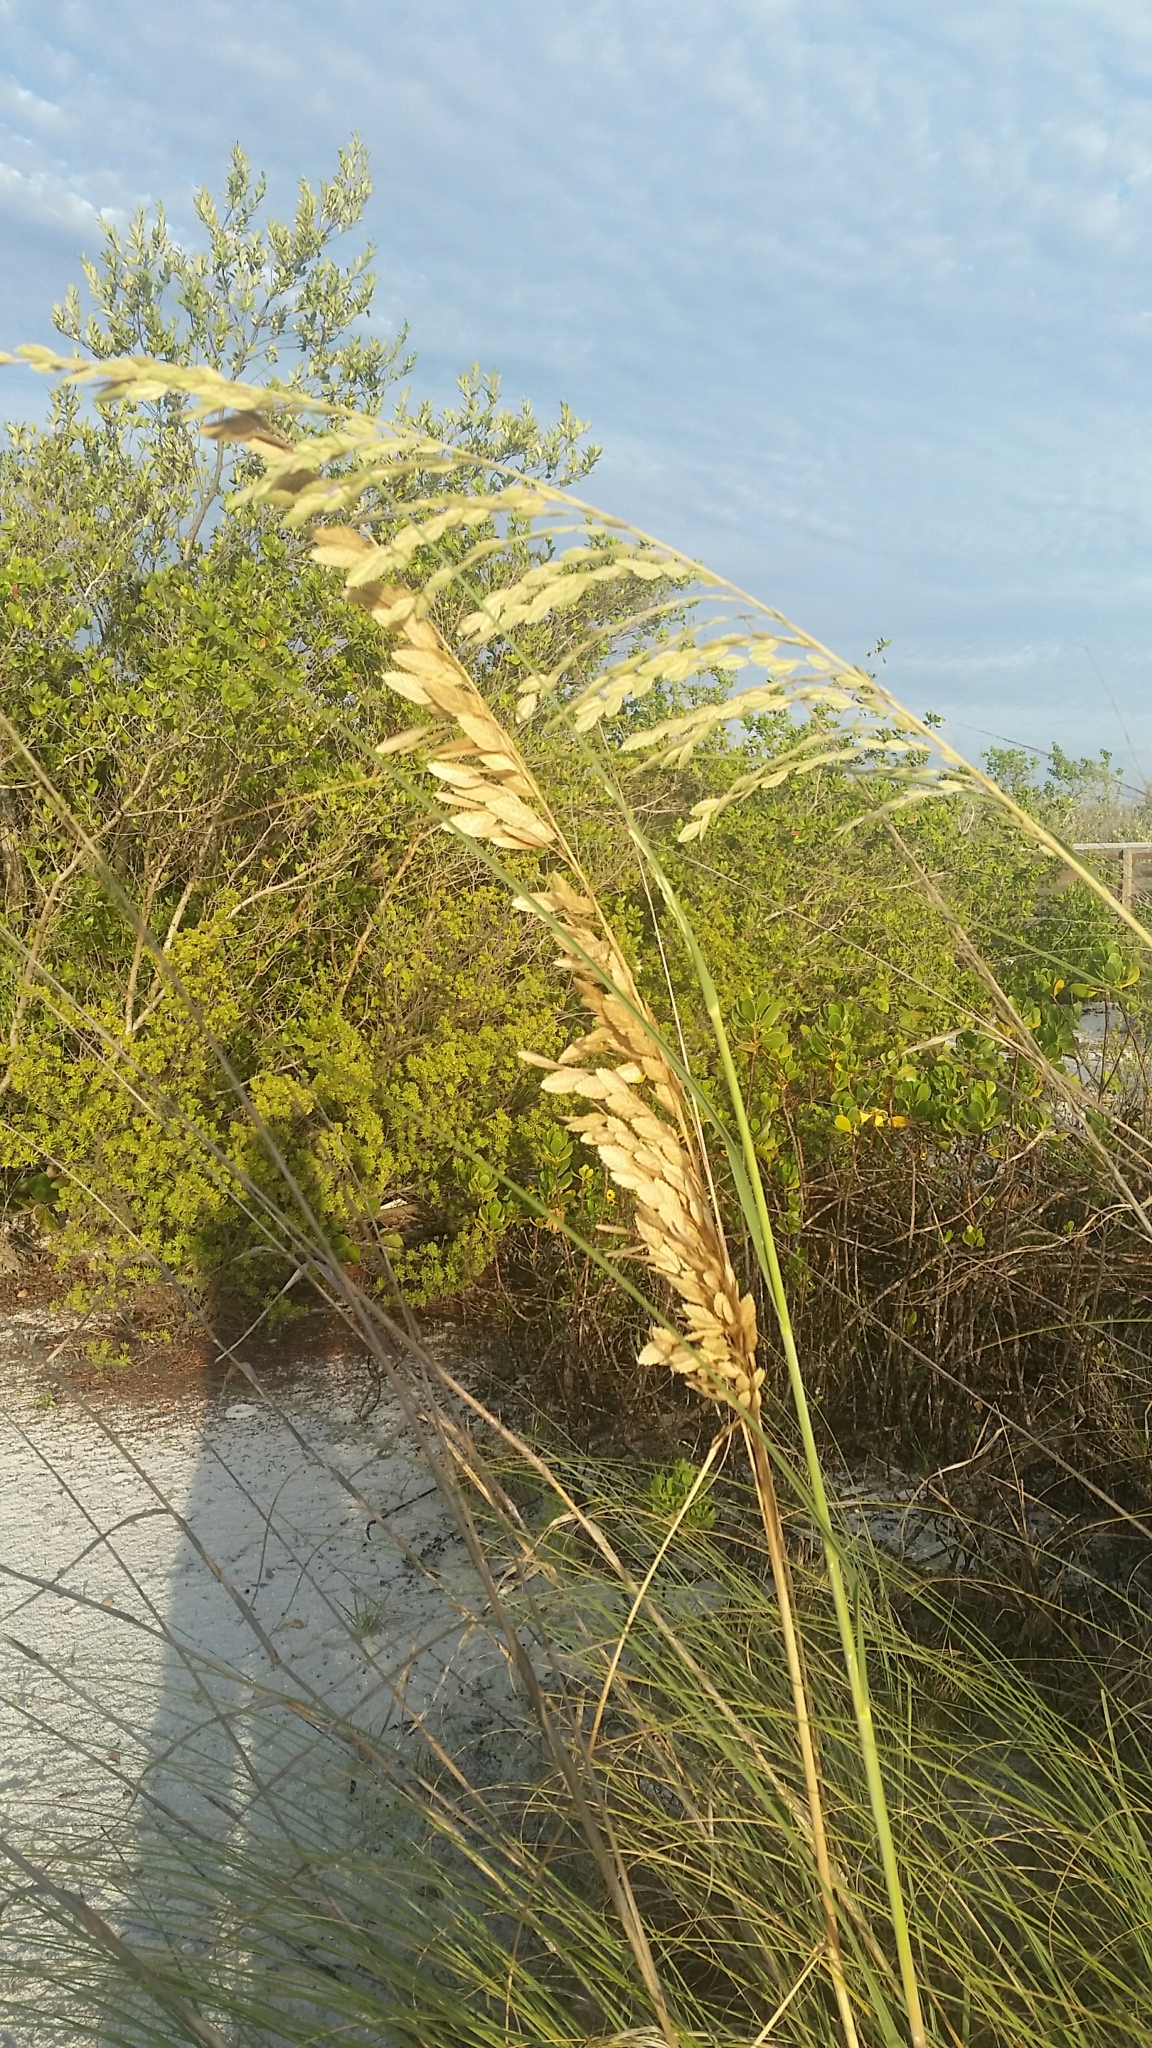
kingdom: Plantae
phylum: Tracheophyta
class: Liliopsida
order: Poales
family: Poaceae
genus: Uniola
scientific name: Uniola paniculata
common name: Seaside-oats
